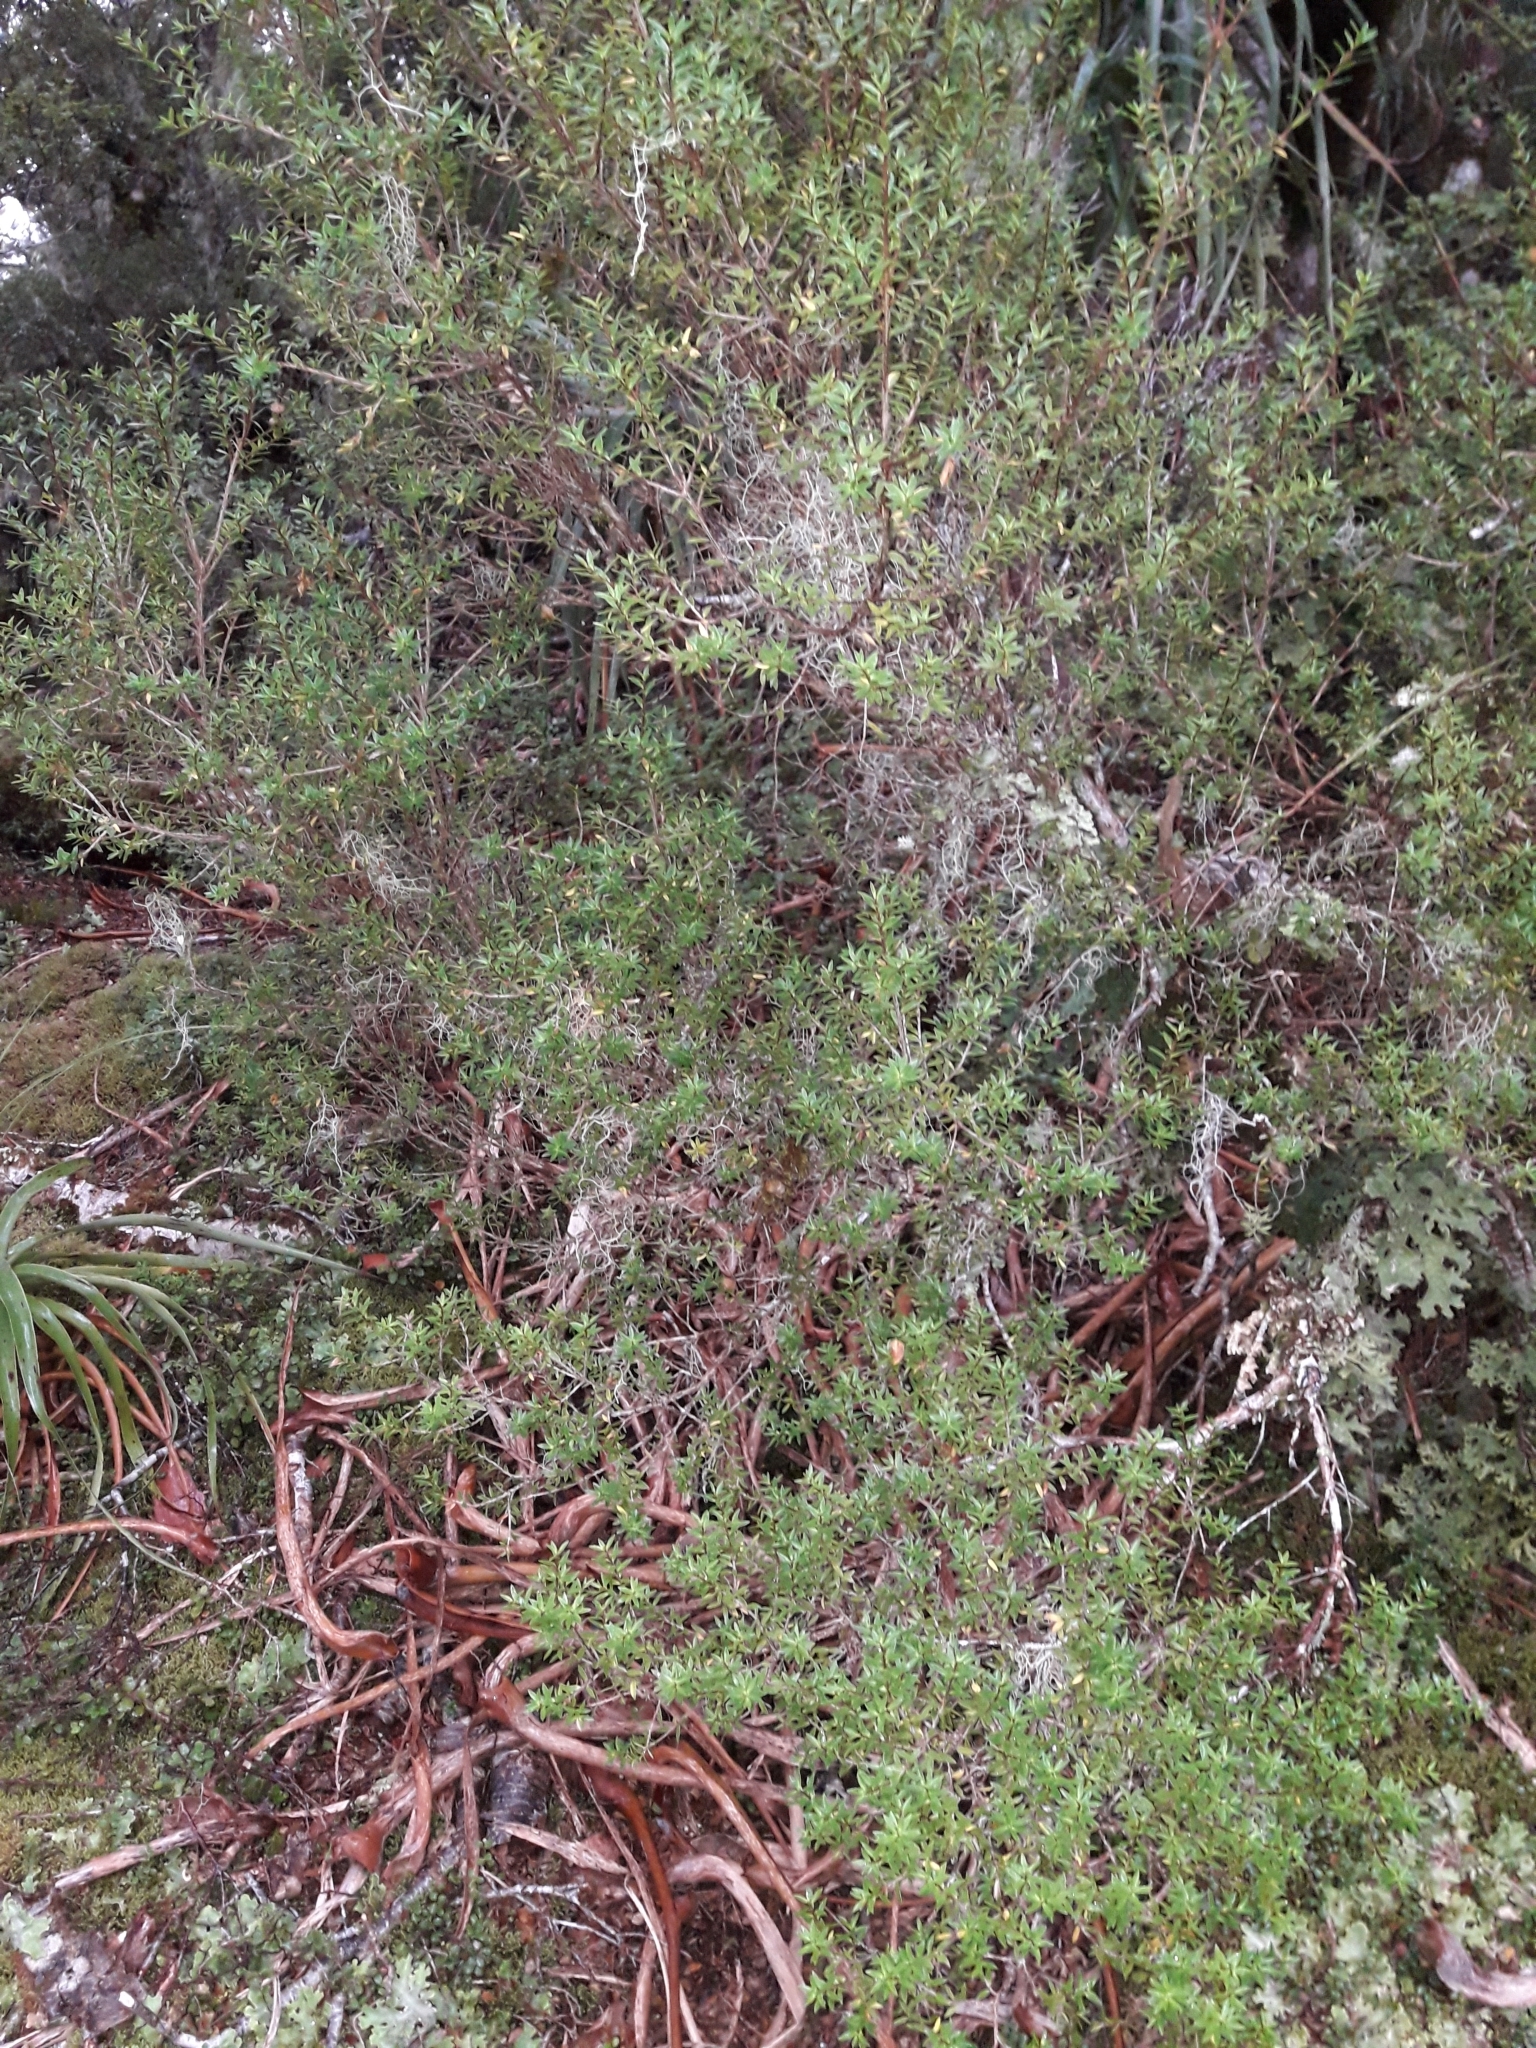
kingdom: Plantae
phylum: Tracheophyta
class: Magnoliopsida
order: Ericales
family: Ericaceae
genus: Archeria
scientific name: Archeria traversii
